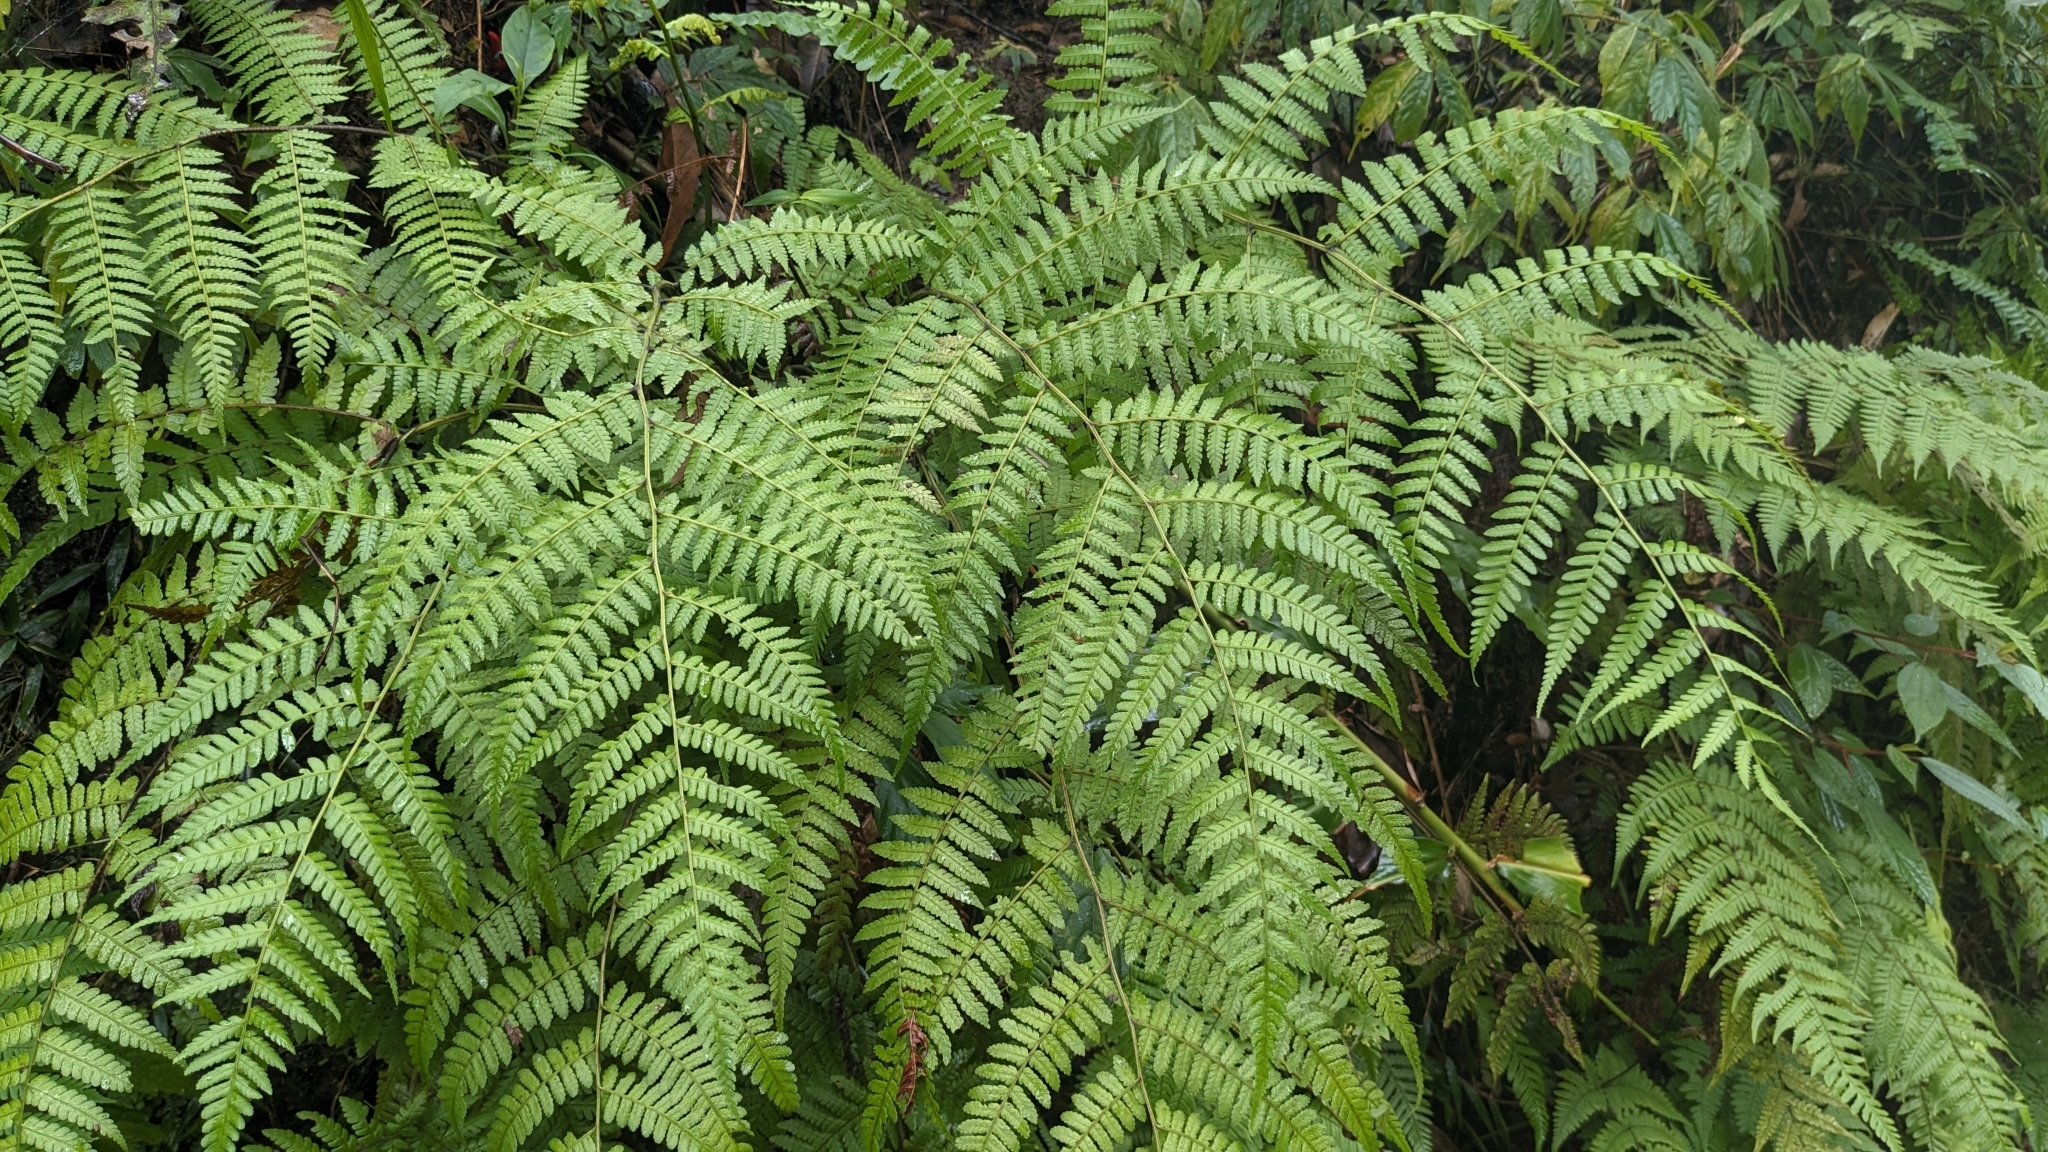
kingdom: Plantae
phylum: Tracheophyta
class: Polypodiopsida
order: Polypodiales
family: Athyriaceae
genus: Diplazium
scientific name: Diplazium laxifrons
